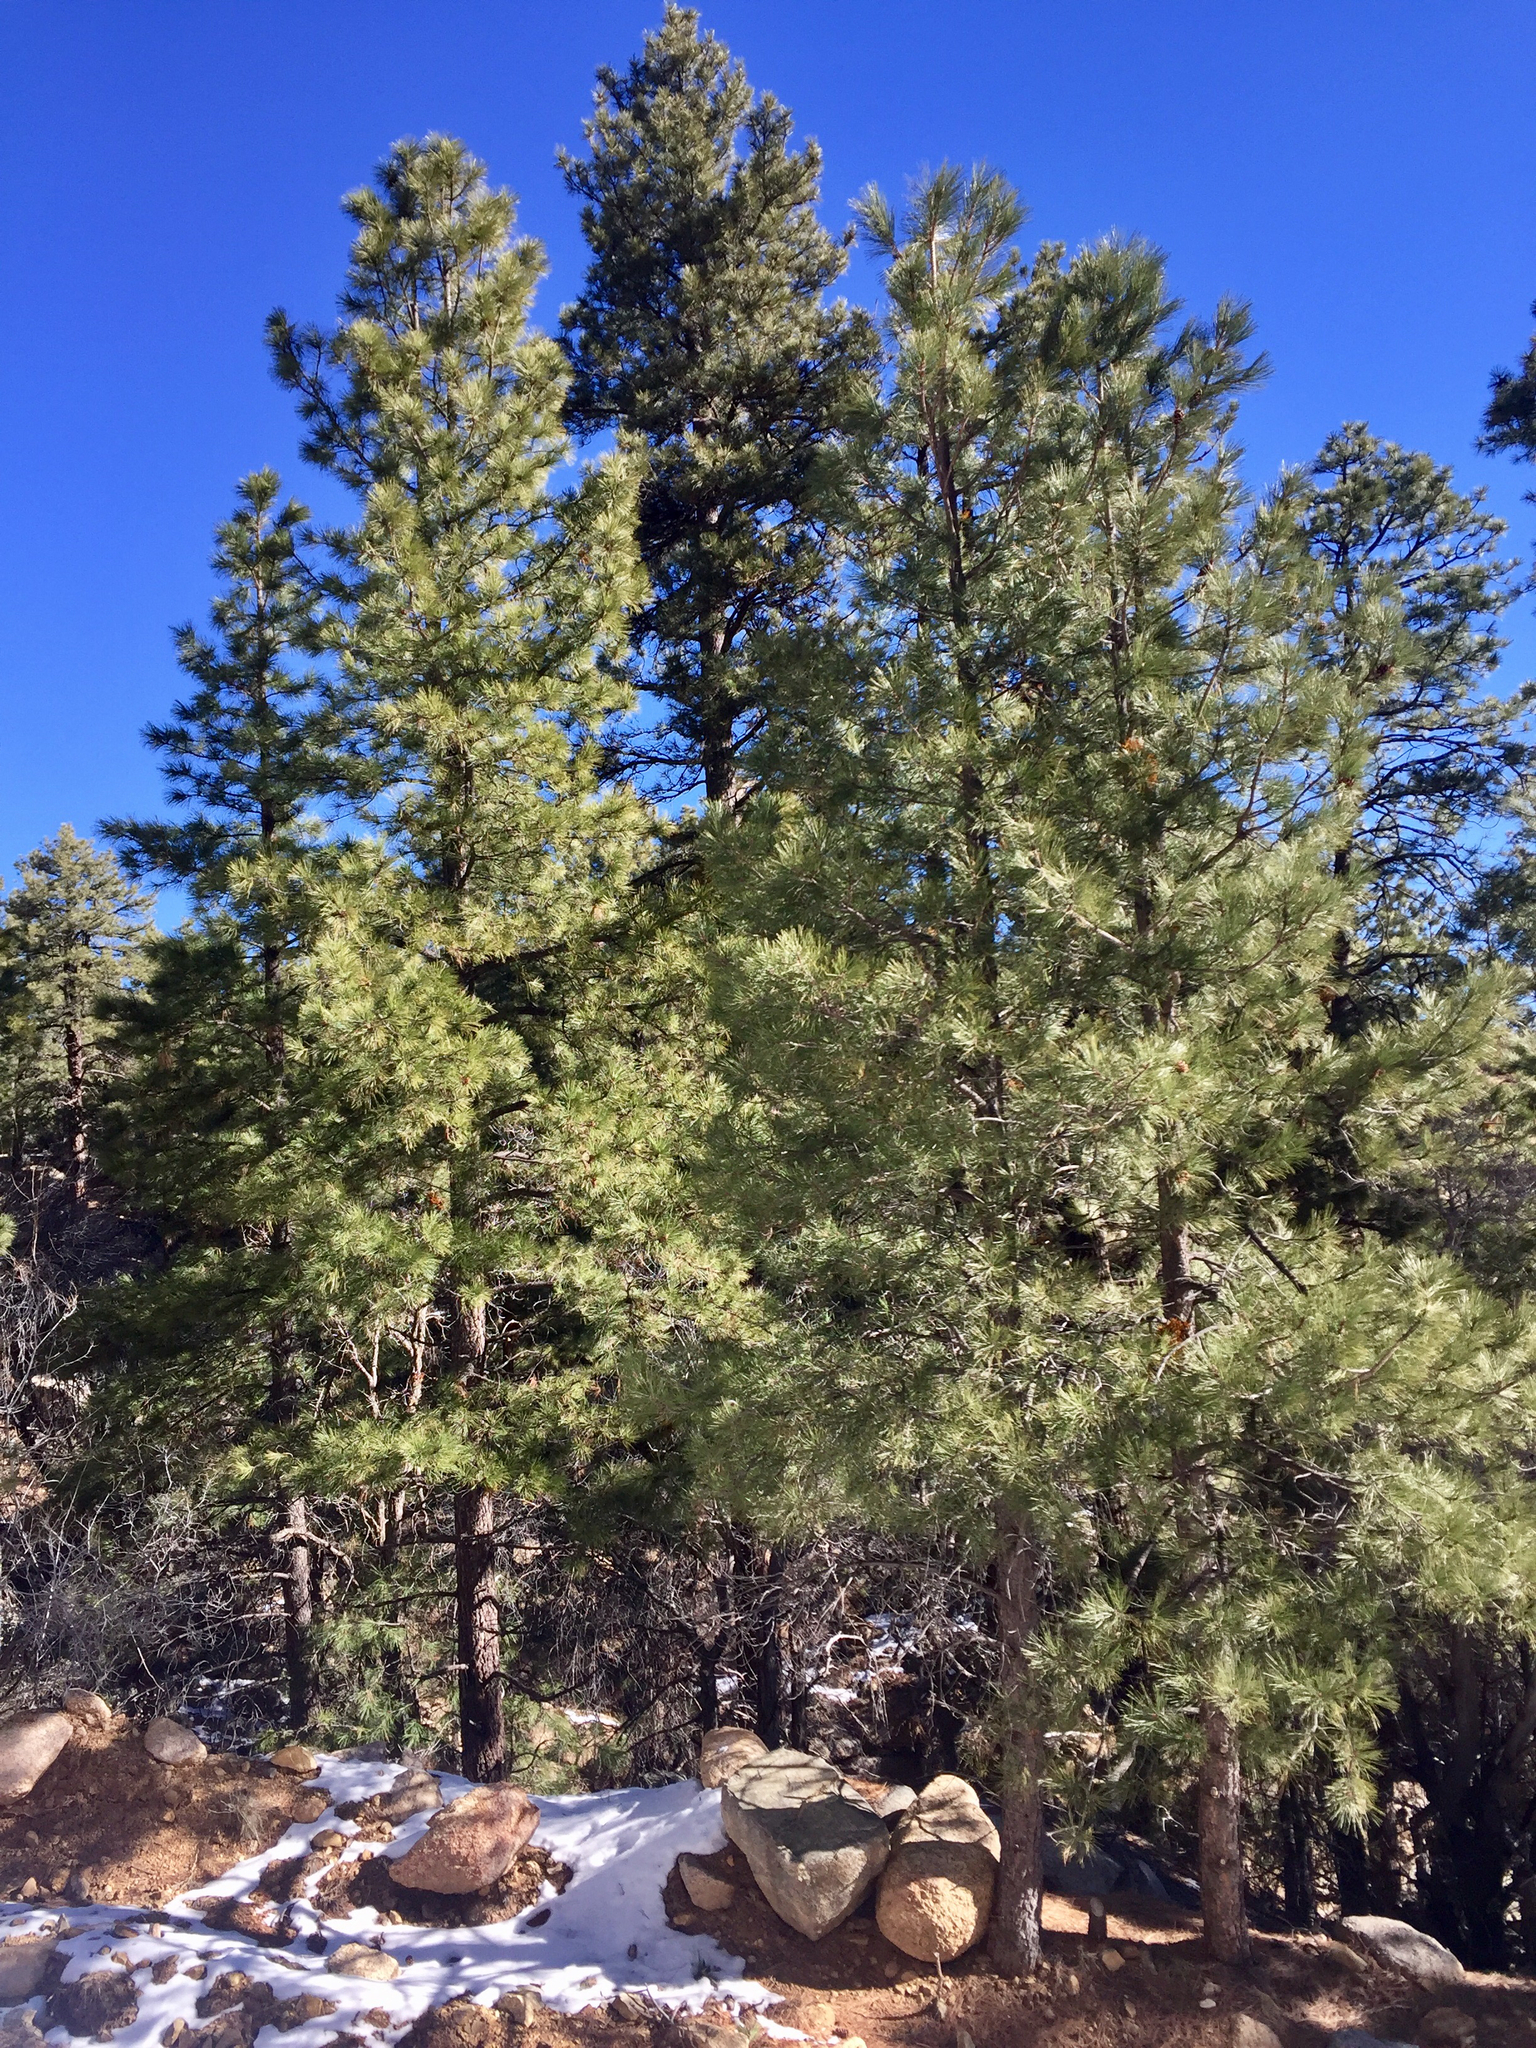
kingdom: Plantae
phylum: Tracheophyta
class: Pinopsida
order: Pinales
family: Pinaceae
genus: Pinus
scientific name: Pinus ponderosa
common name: Western yellow-pine
